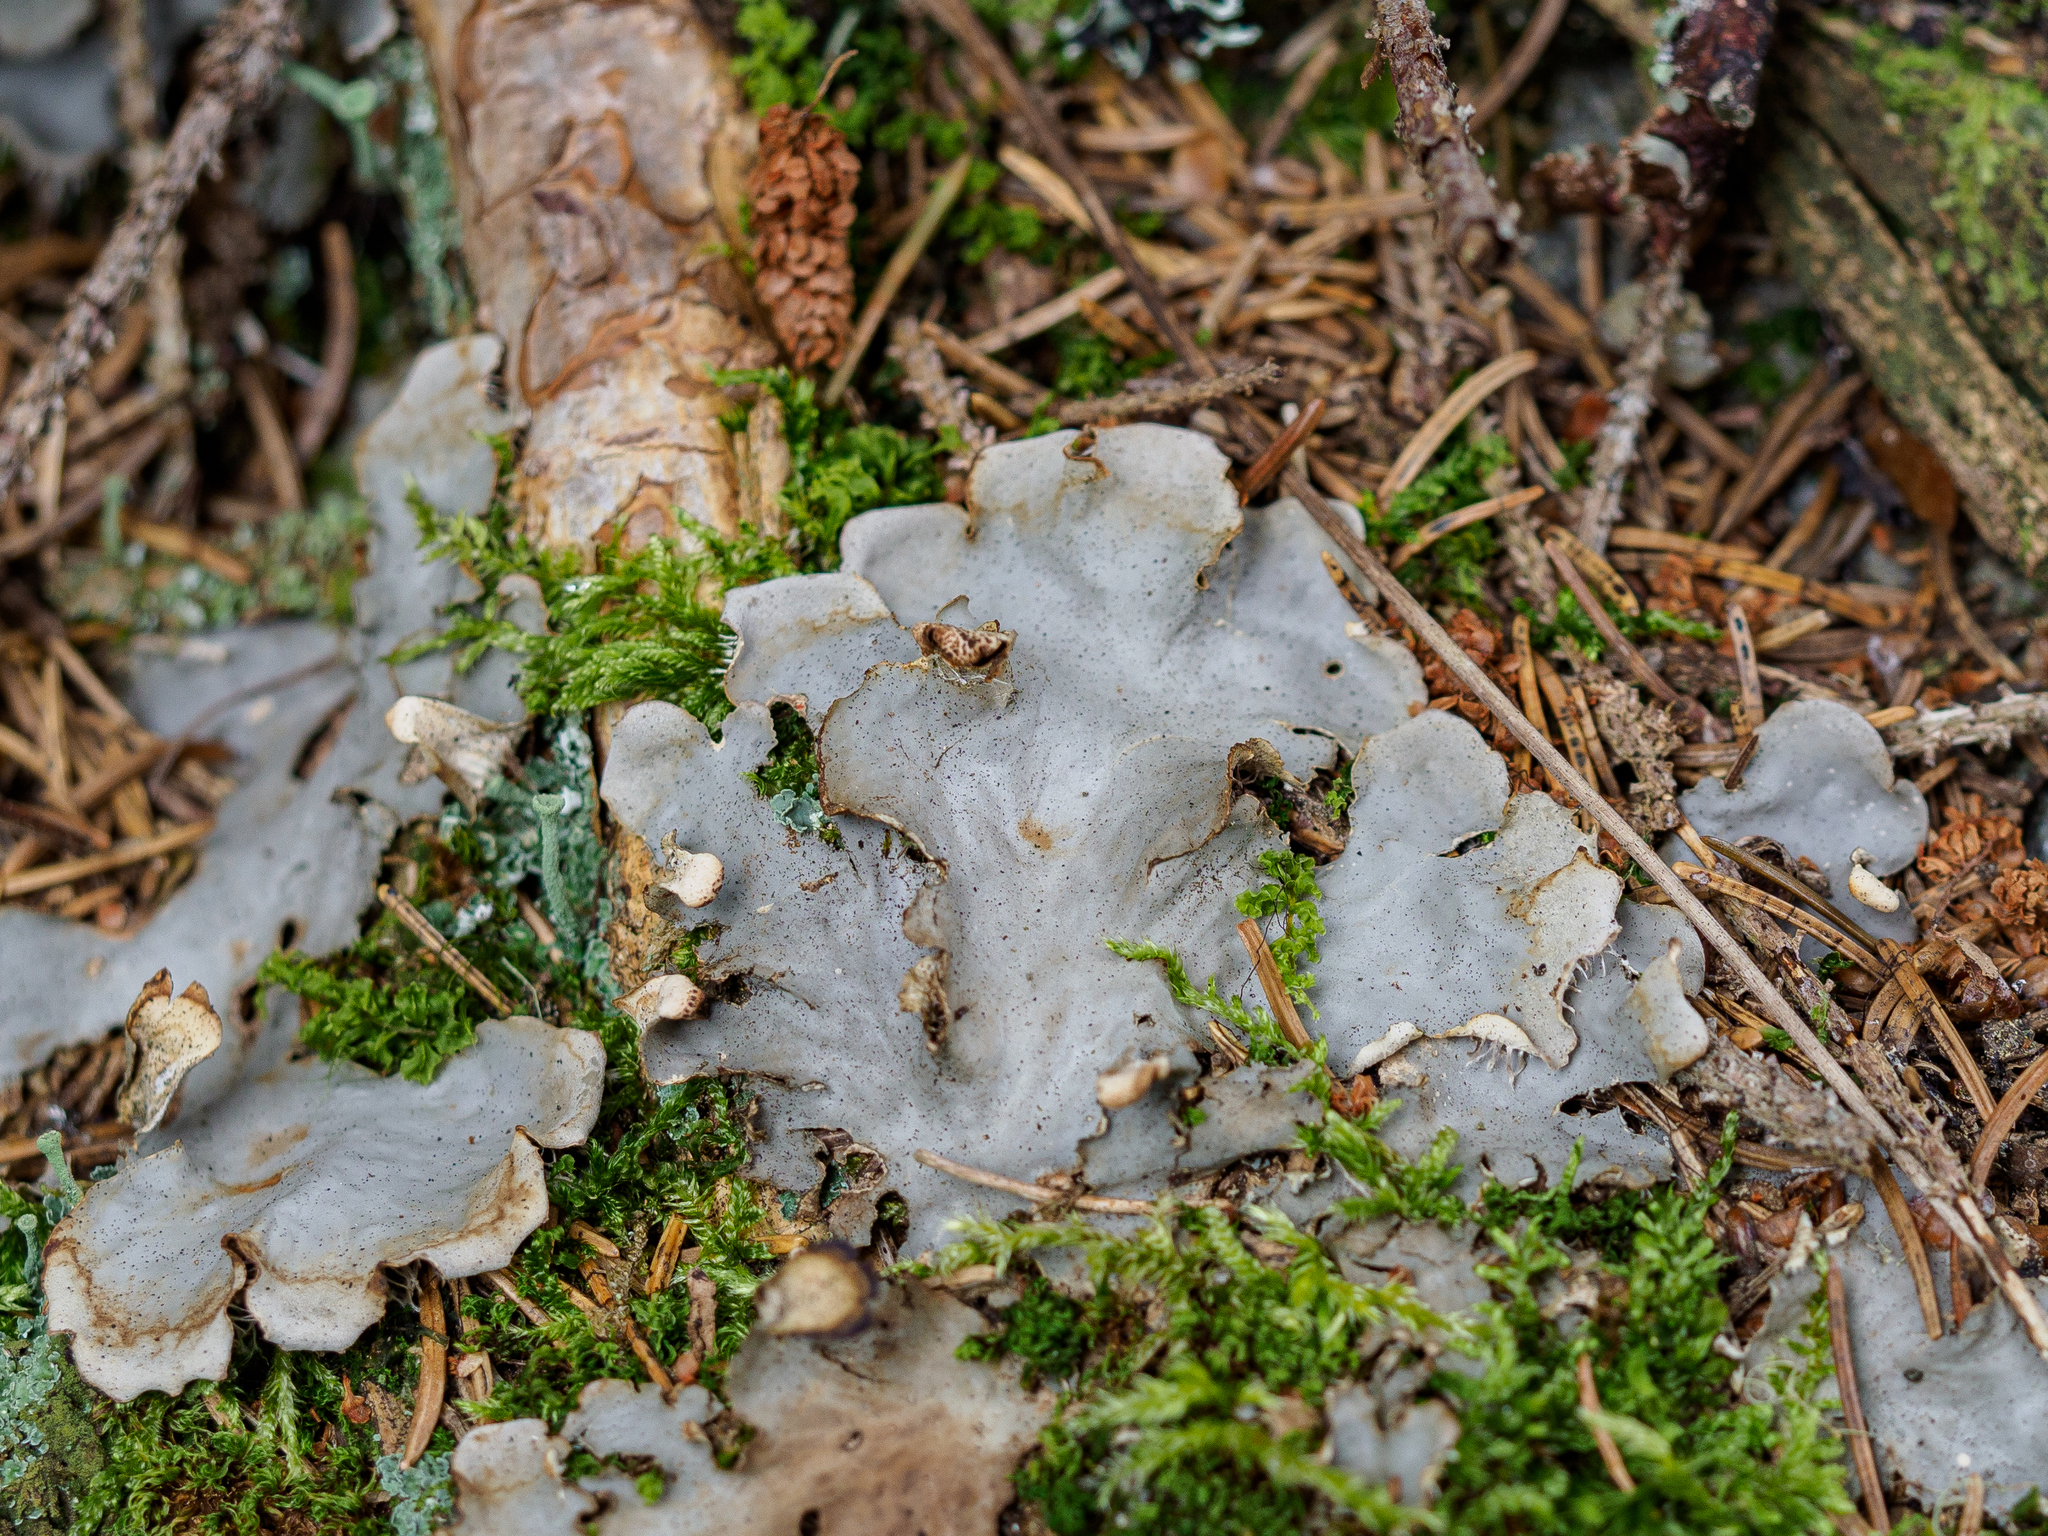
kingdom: Fungi
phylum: Ascomycota
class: Lecanoromycetes
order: Peltigerales
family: Peltigeraceae
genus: Peltigera
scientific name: Peltigera praetextata
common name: Scaly dog-lichen
